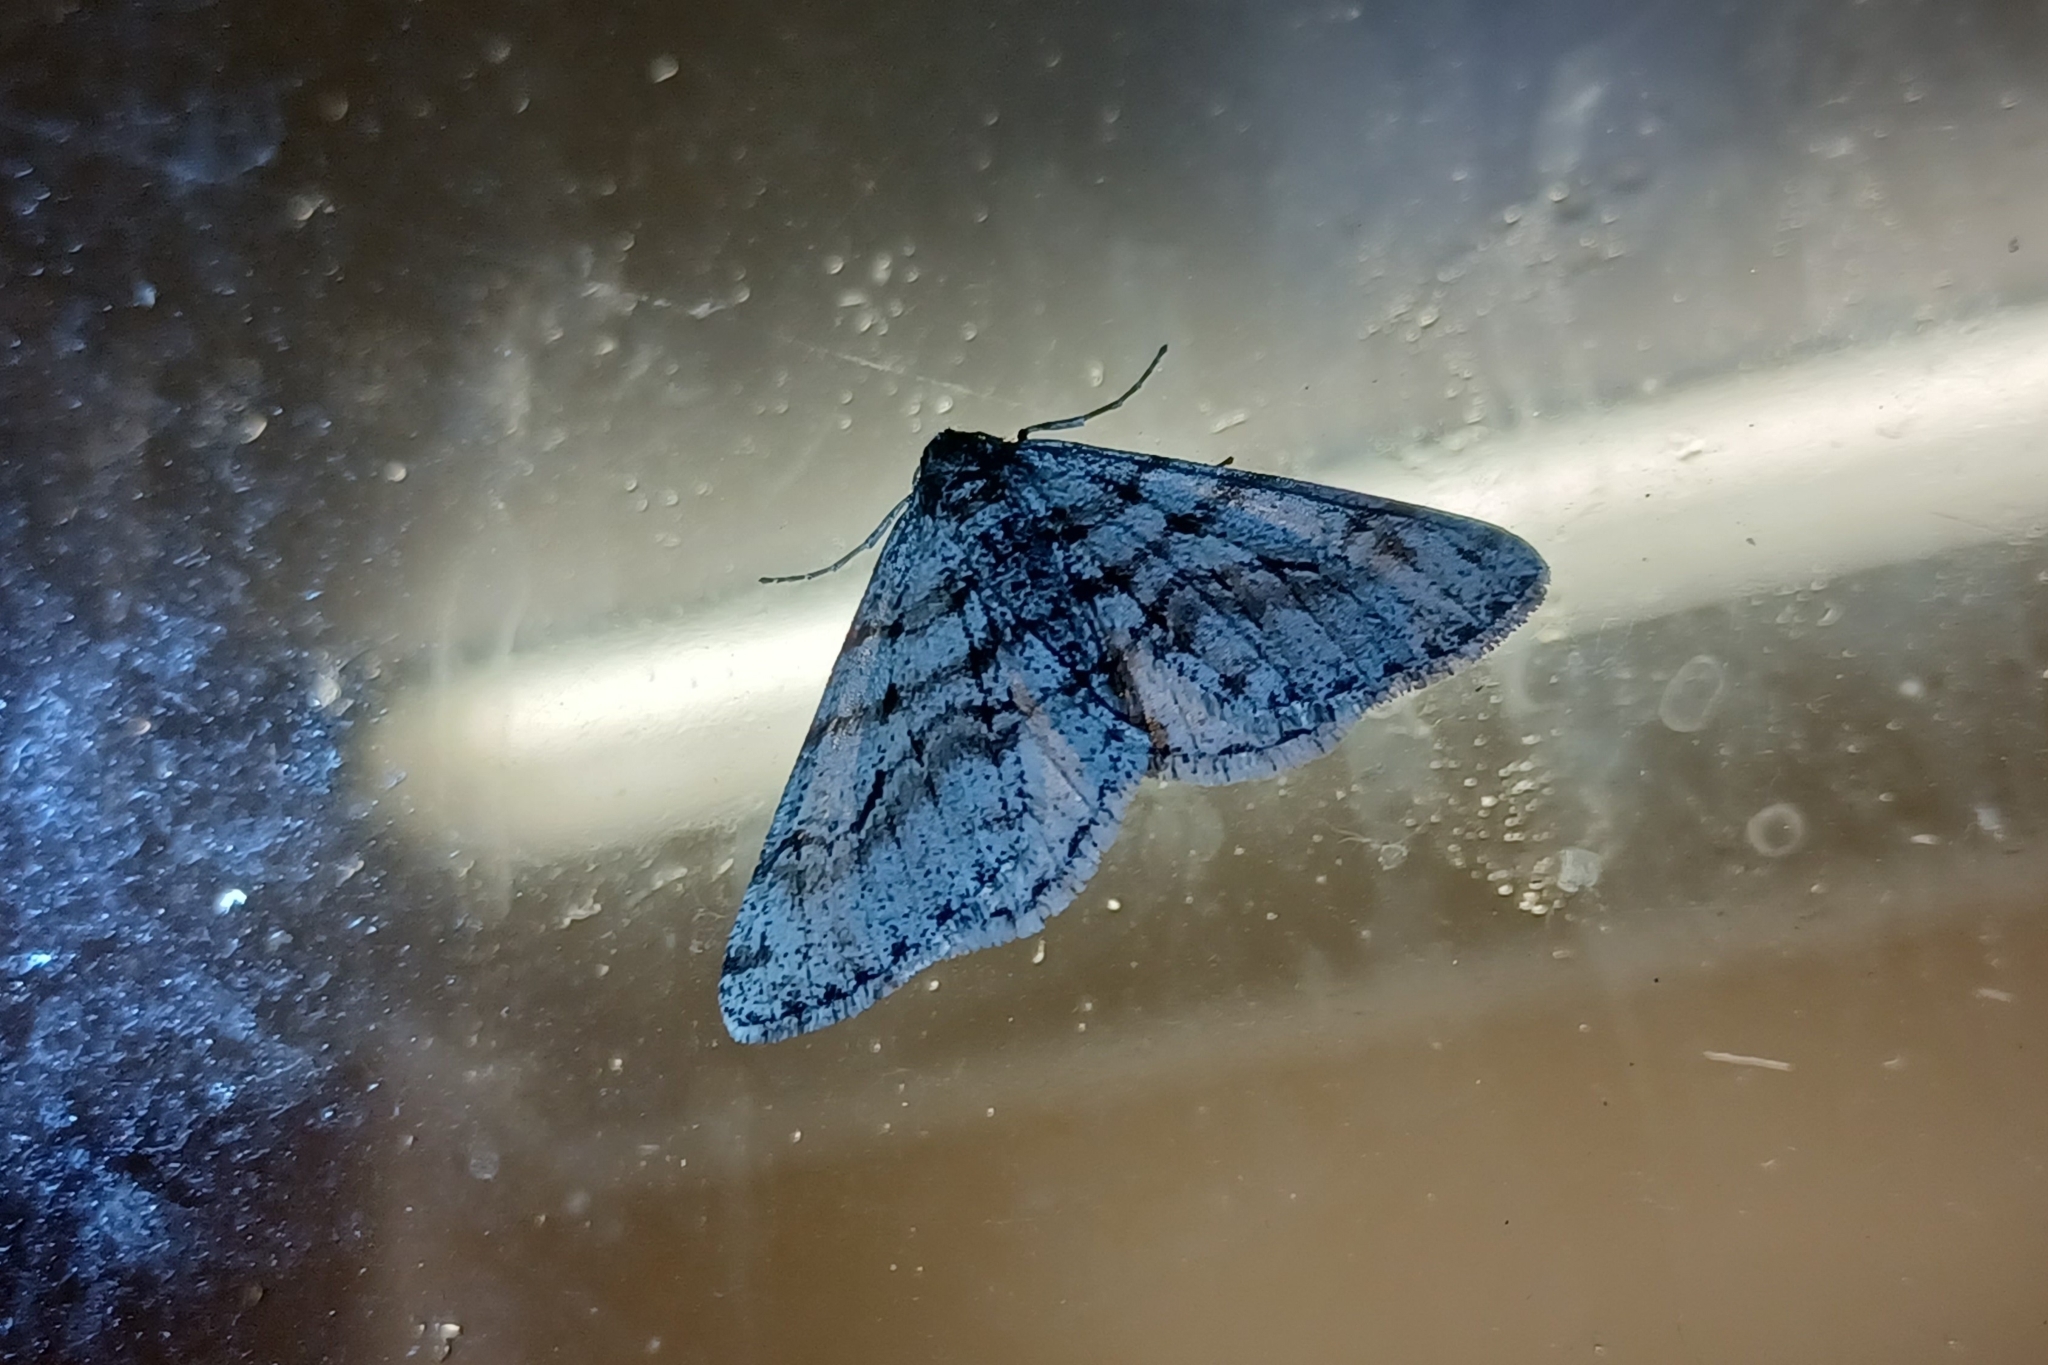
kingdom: Animalia
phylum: Arthropoda
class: Insecta
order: Lepidoptera
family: Geometridae
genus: Phigalia
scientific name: Phigalia titea
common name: Spiny looper
